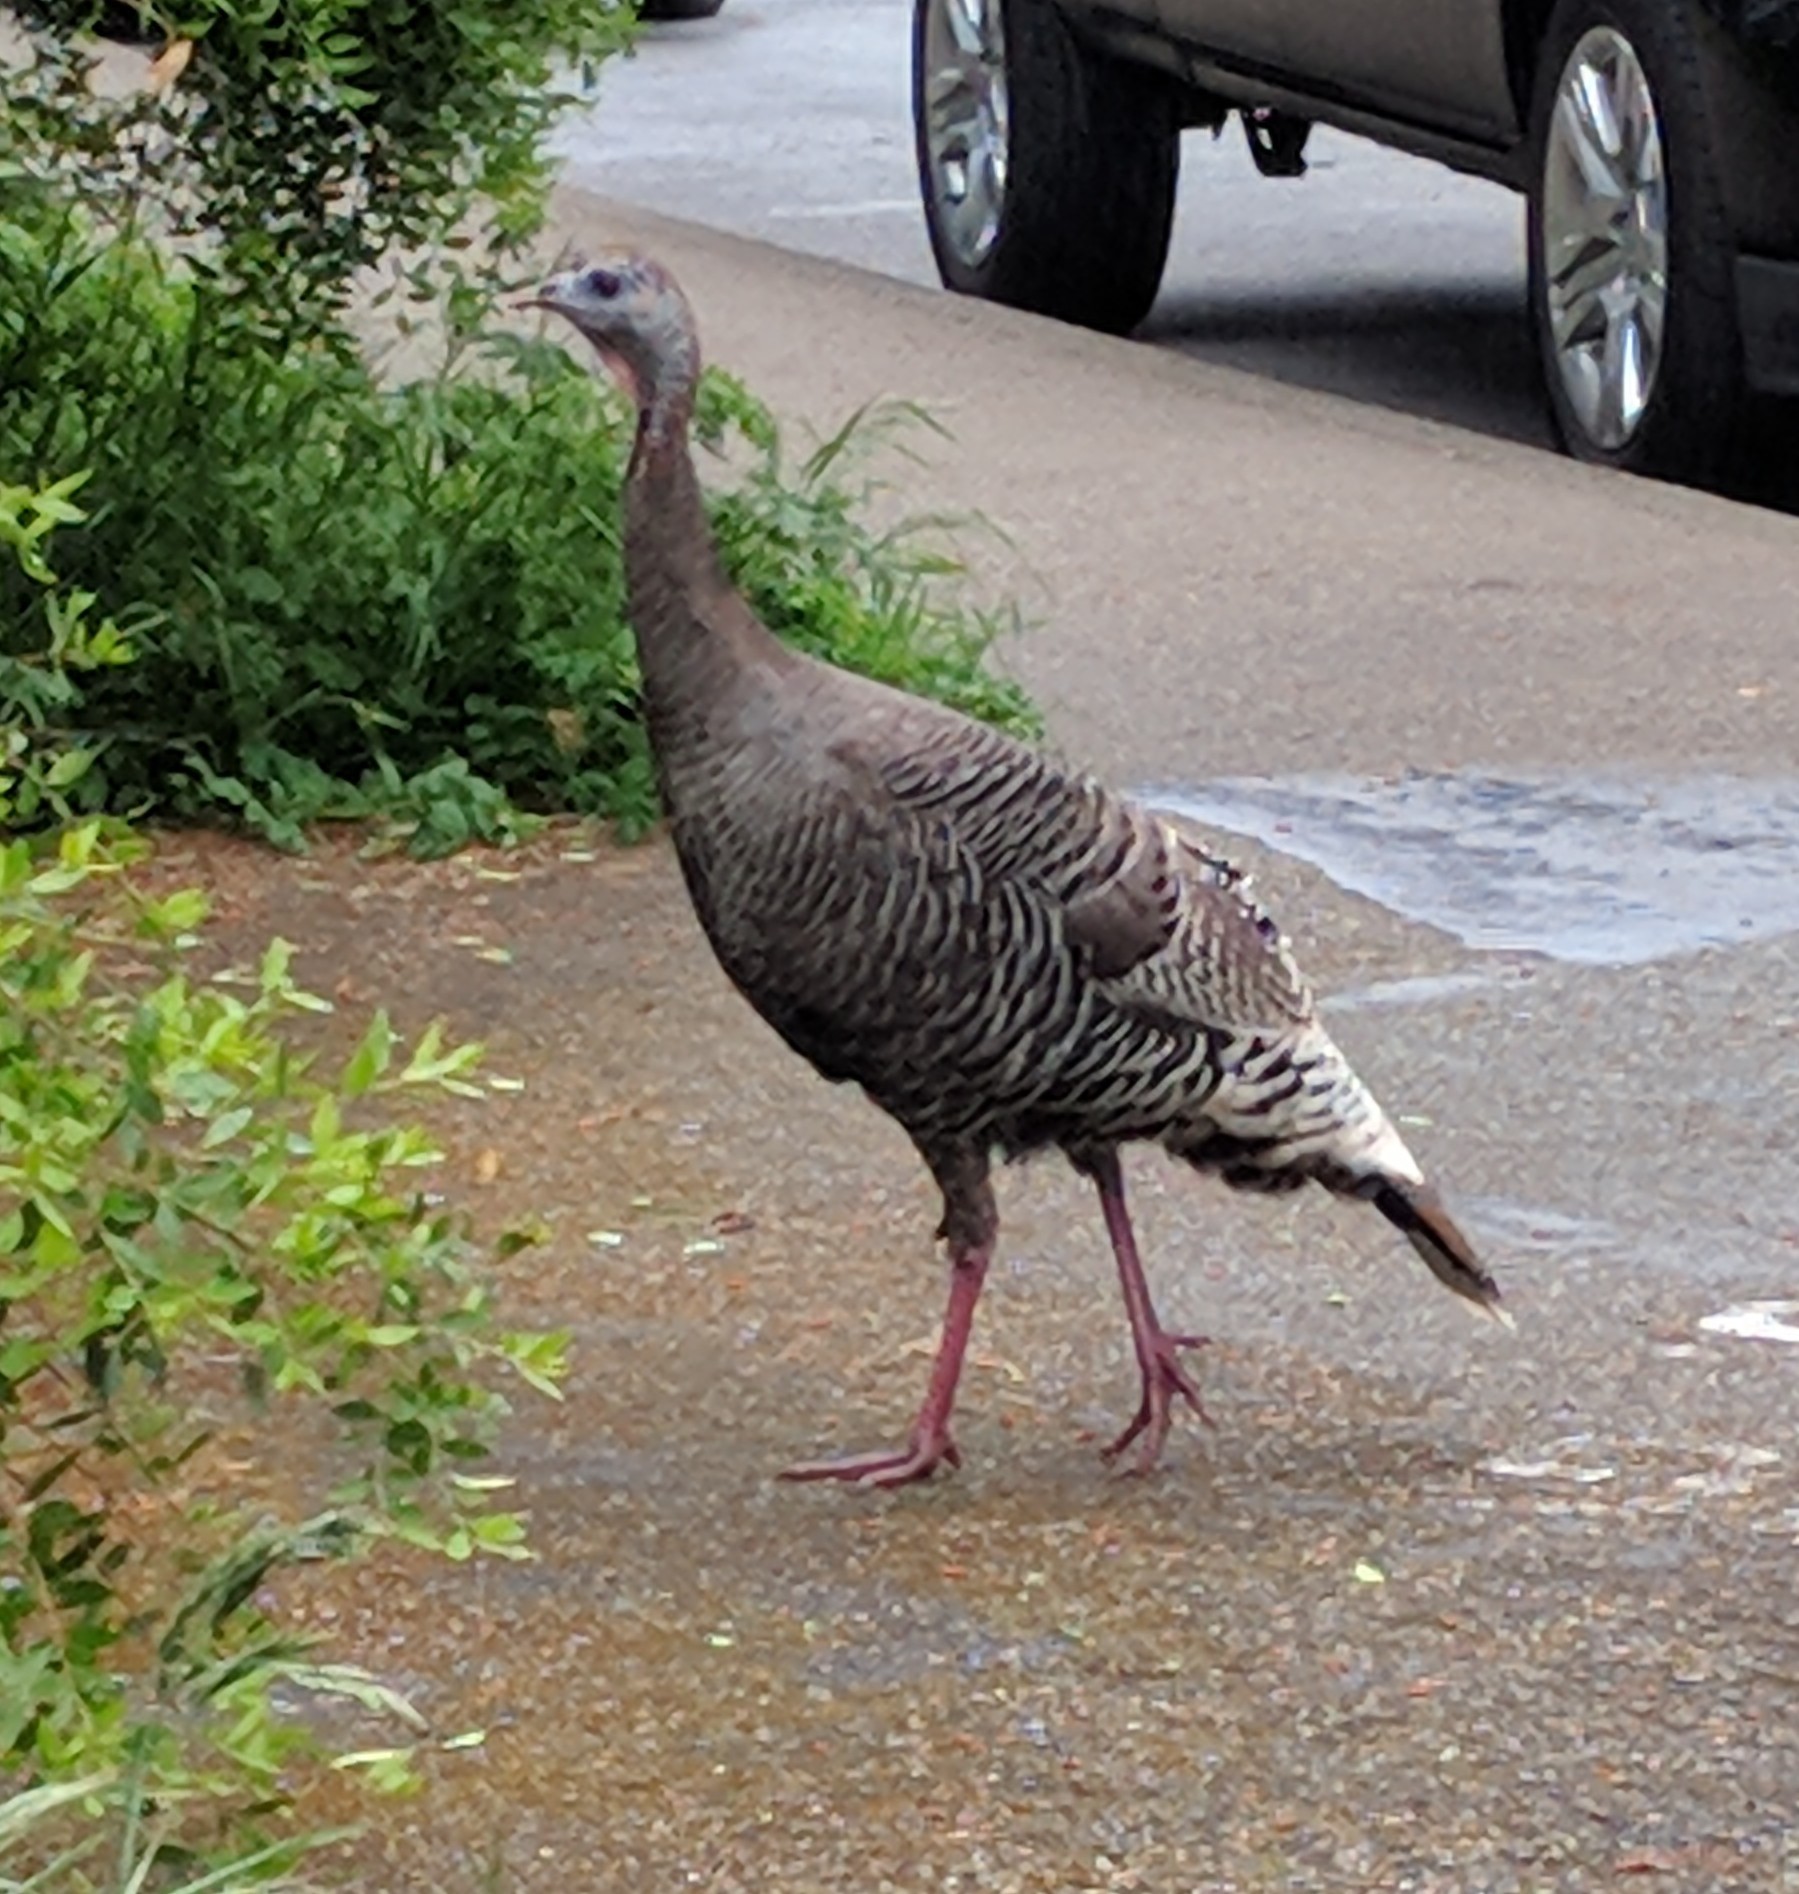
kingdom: Animalia
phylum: Chordata
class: Aves
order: Galliformes
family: Phasianidae
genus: Meleagris
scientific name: Meleagris gallopavo
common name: Wild turkey
